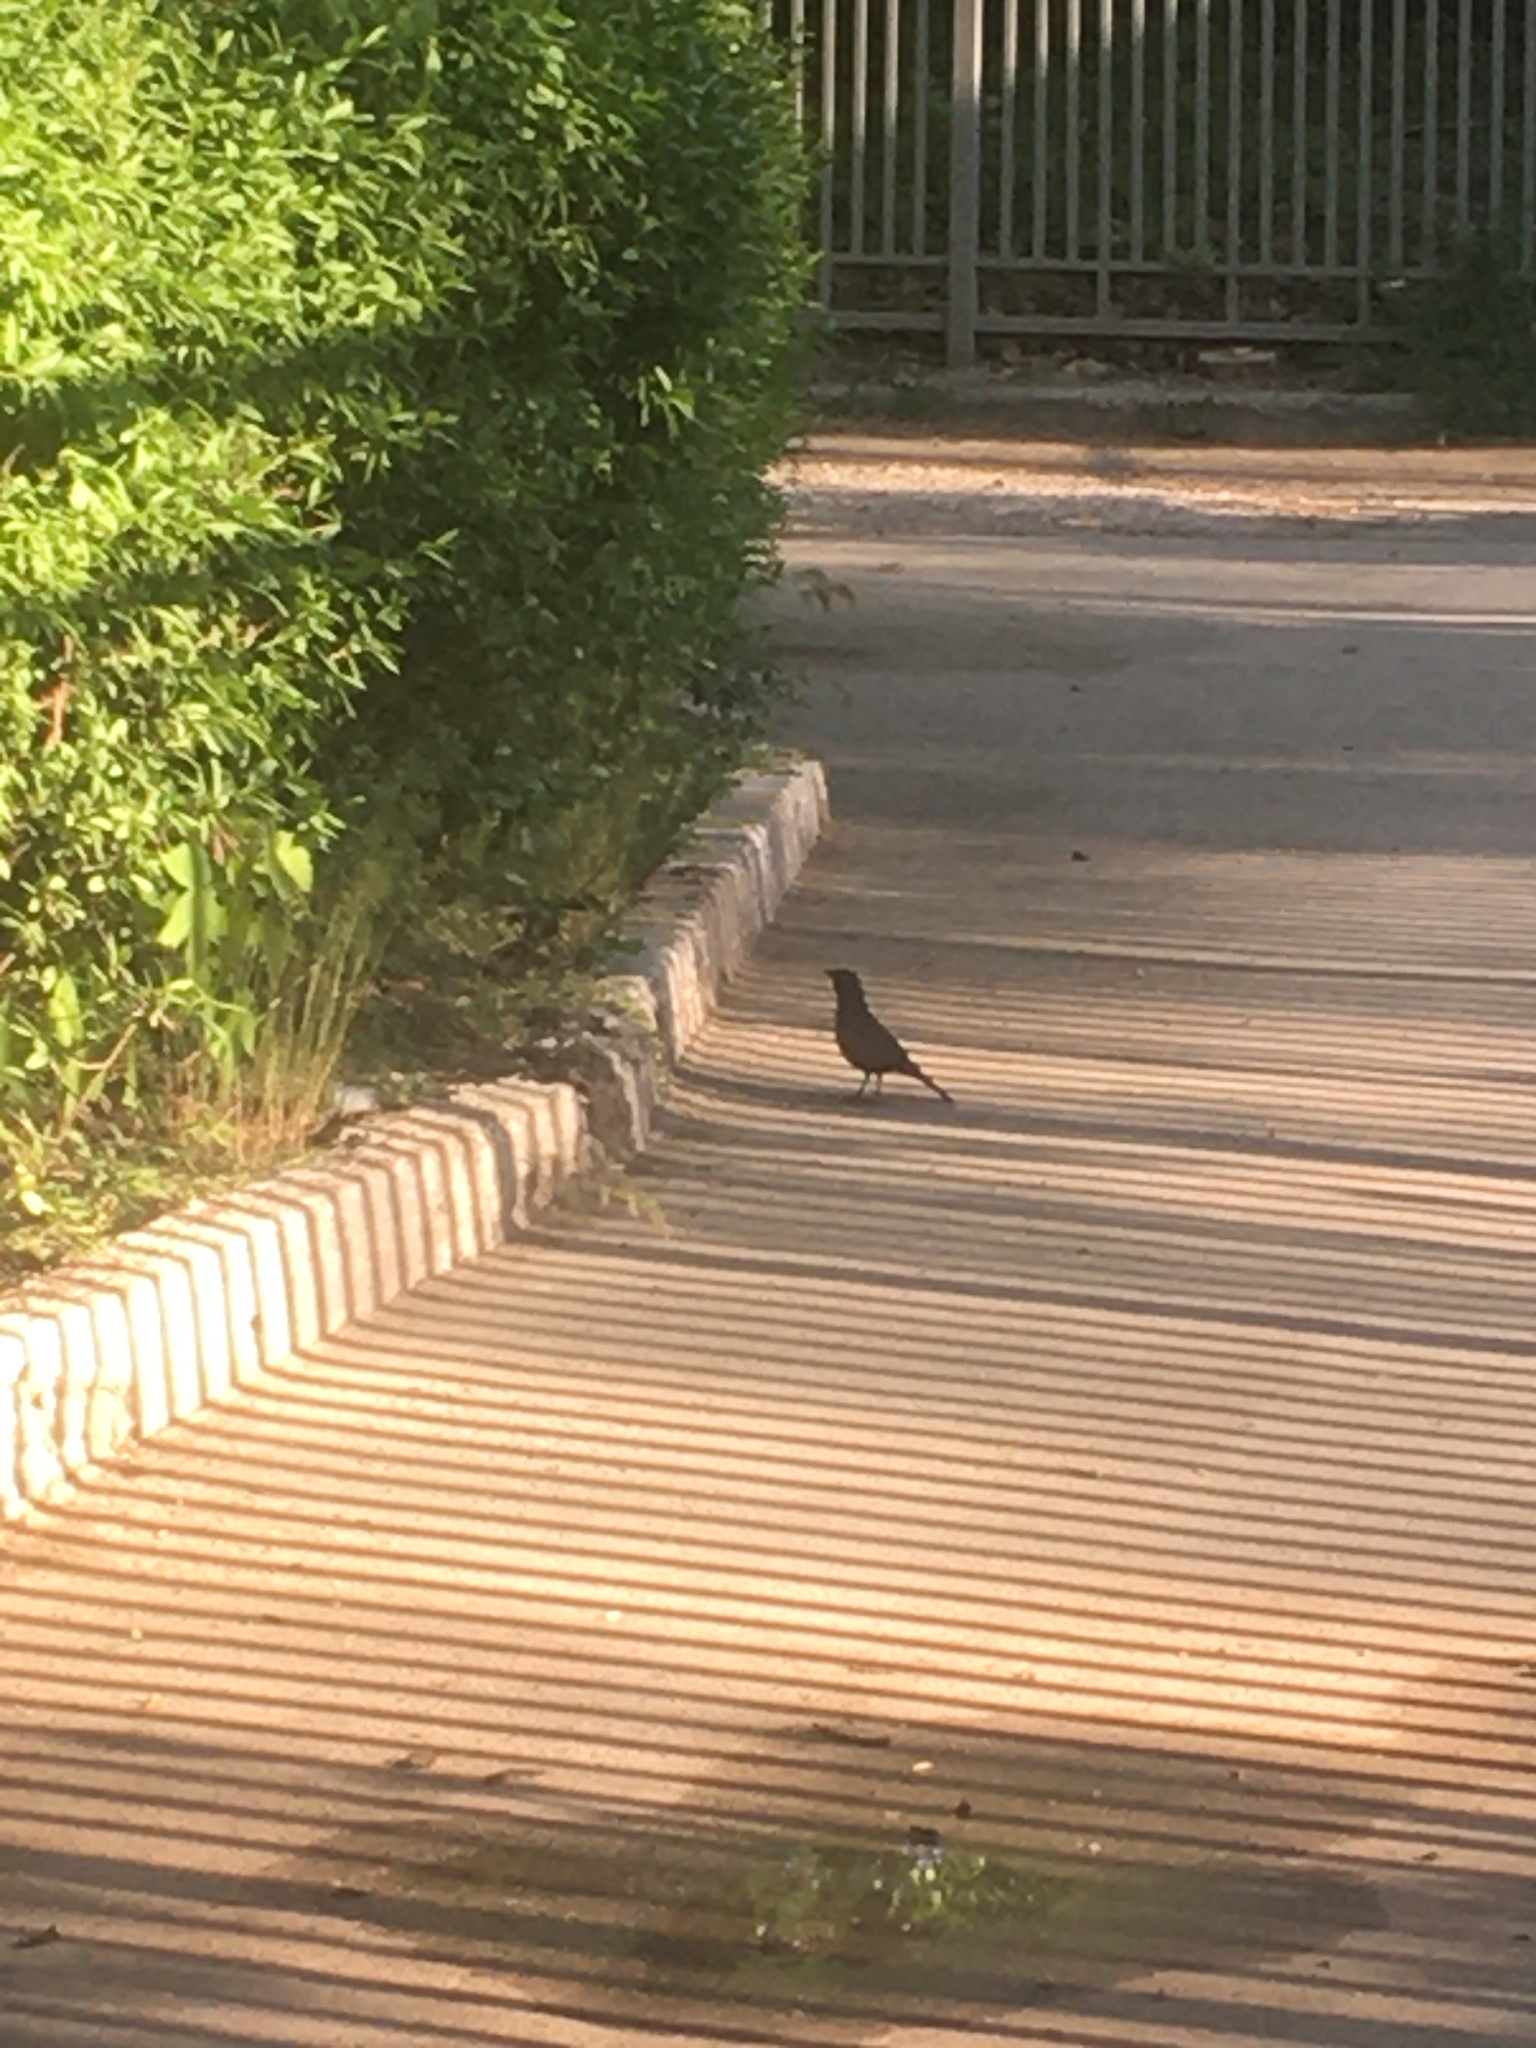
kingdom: Animalia
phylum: Chordata
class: Aves
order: Passeriformes
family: Turdidae
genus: Turdus
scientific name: Turdus merula
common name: Common blackbird
